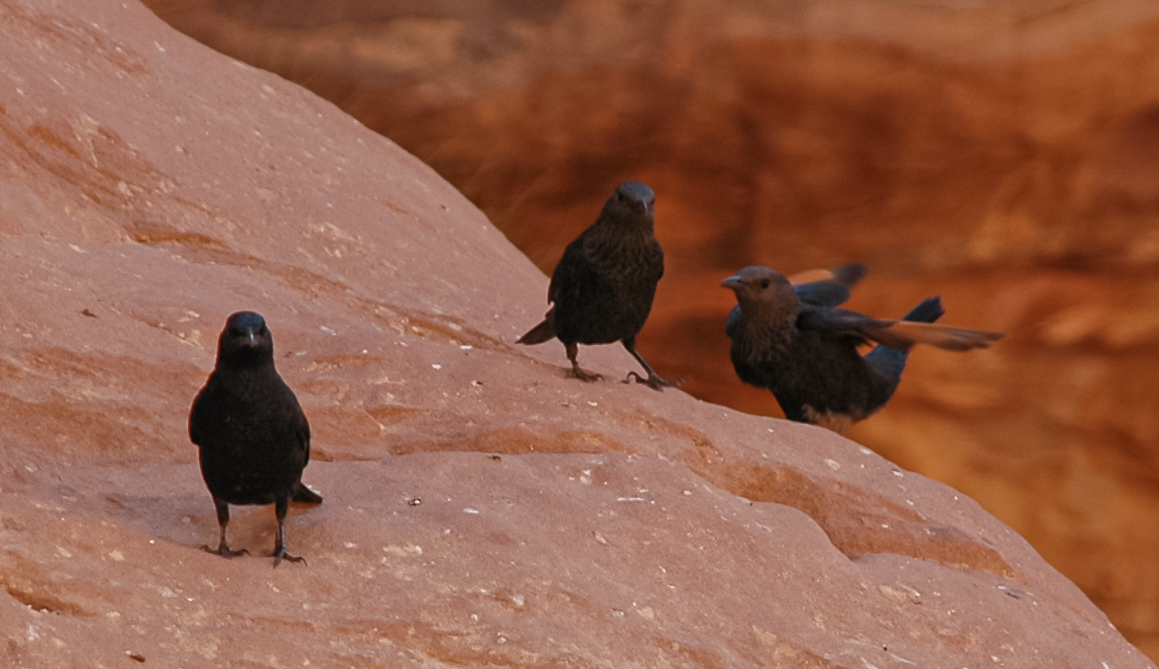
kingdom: Animalia
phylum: Chordata
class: Aves
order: Passeriformes
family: Sturnidae
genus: Onychognathus
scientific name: Onychognathus tristramii
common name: Tristram's starling
